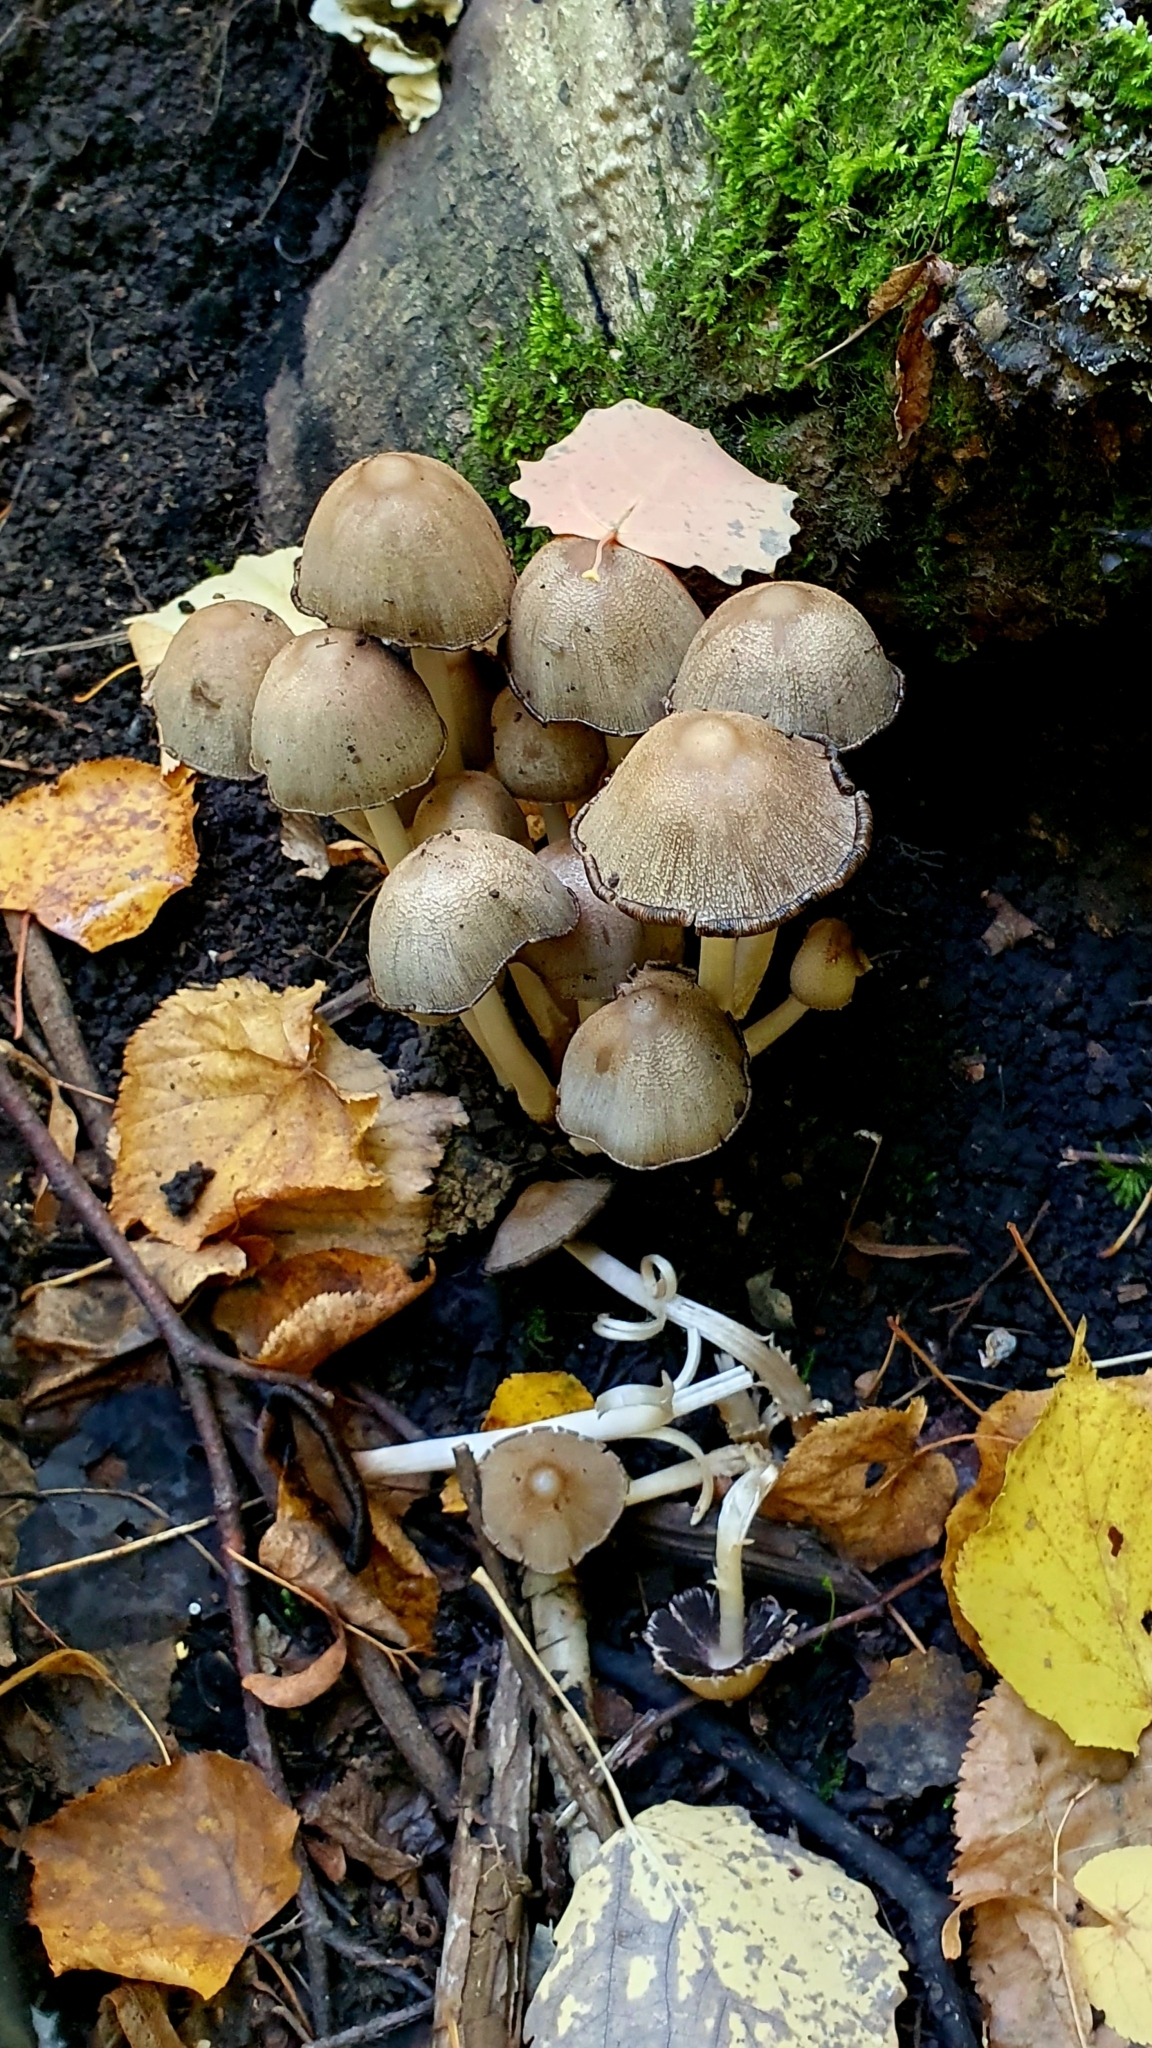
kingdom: Fungi
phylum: Basidiomycota
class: Agaricomycetes
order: Agaricales
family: Psathyrellaceae
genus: Coprinopsis
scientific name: Coprinopsis atramentaria
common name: Common ink-cap
